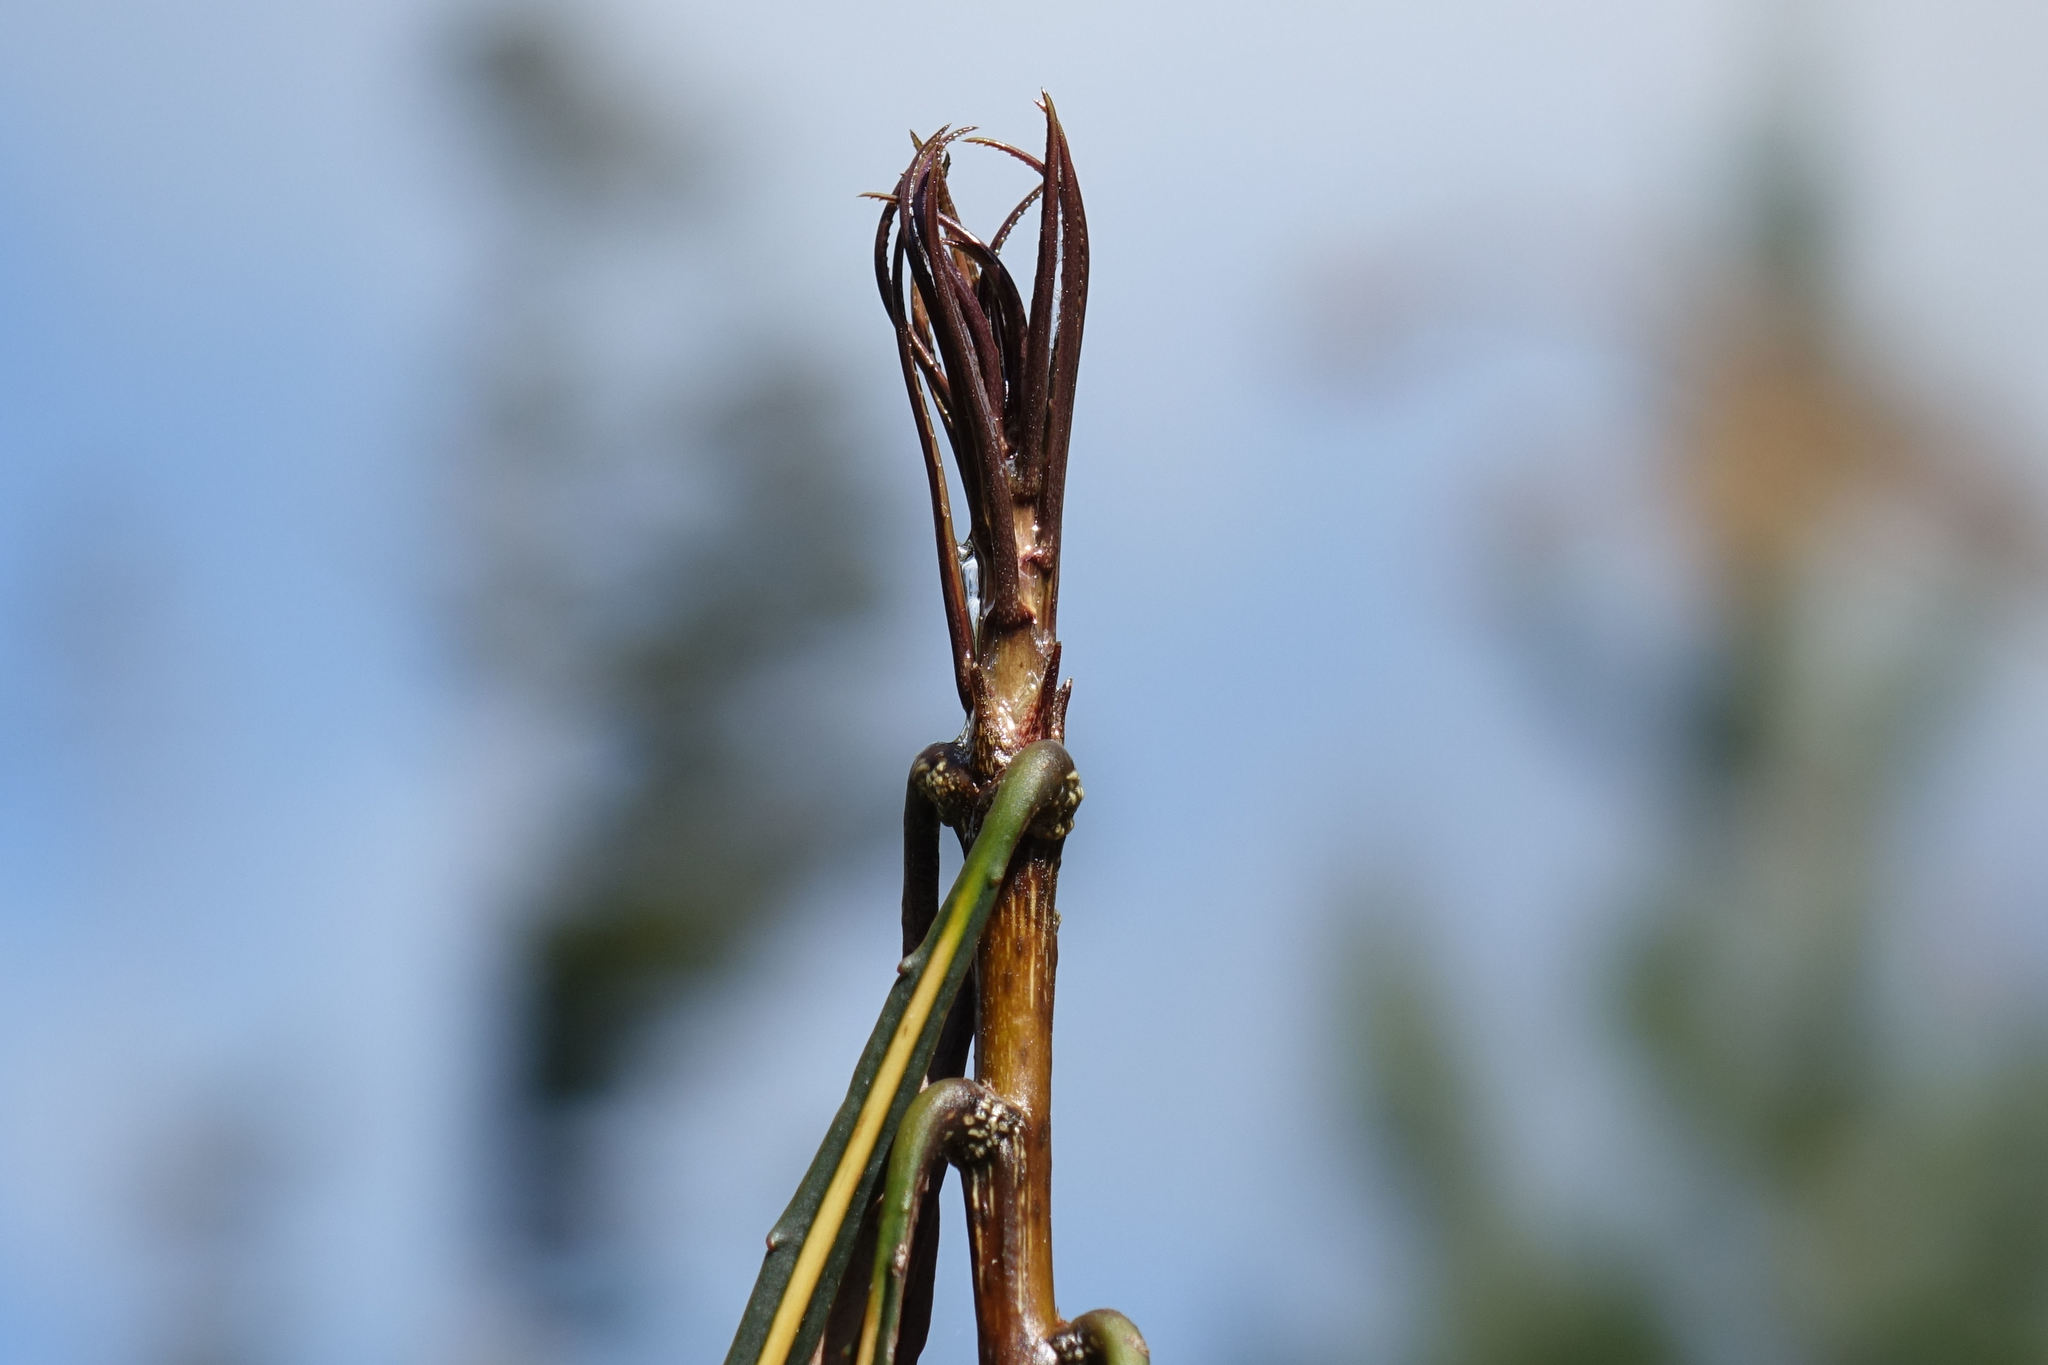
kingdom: Plantae
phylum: Tracheophyta
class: Magnoliopsida
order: Apiales
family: Araliaceae
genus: Pseudopanax
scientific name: Pseudopanax crassifolius
